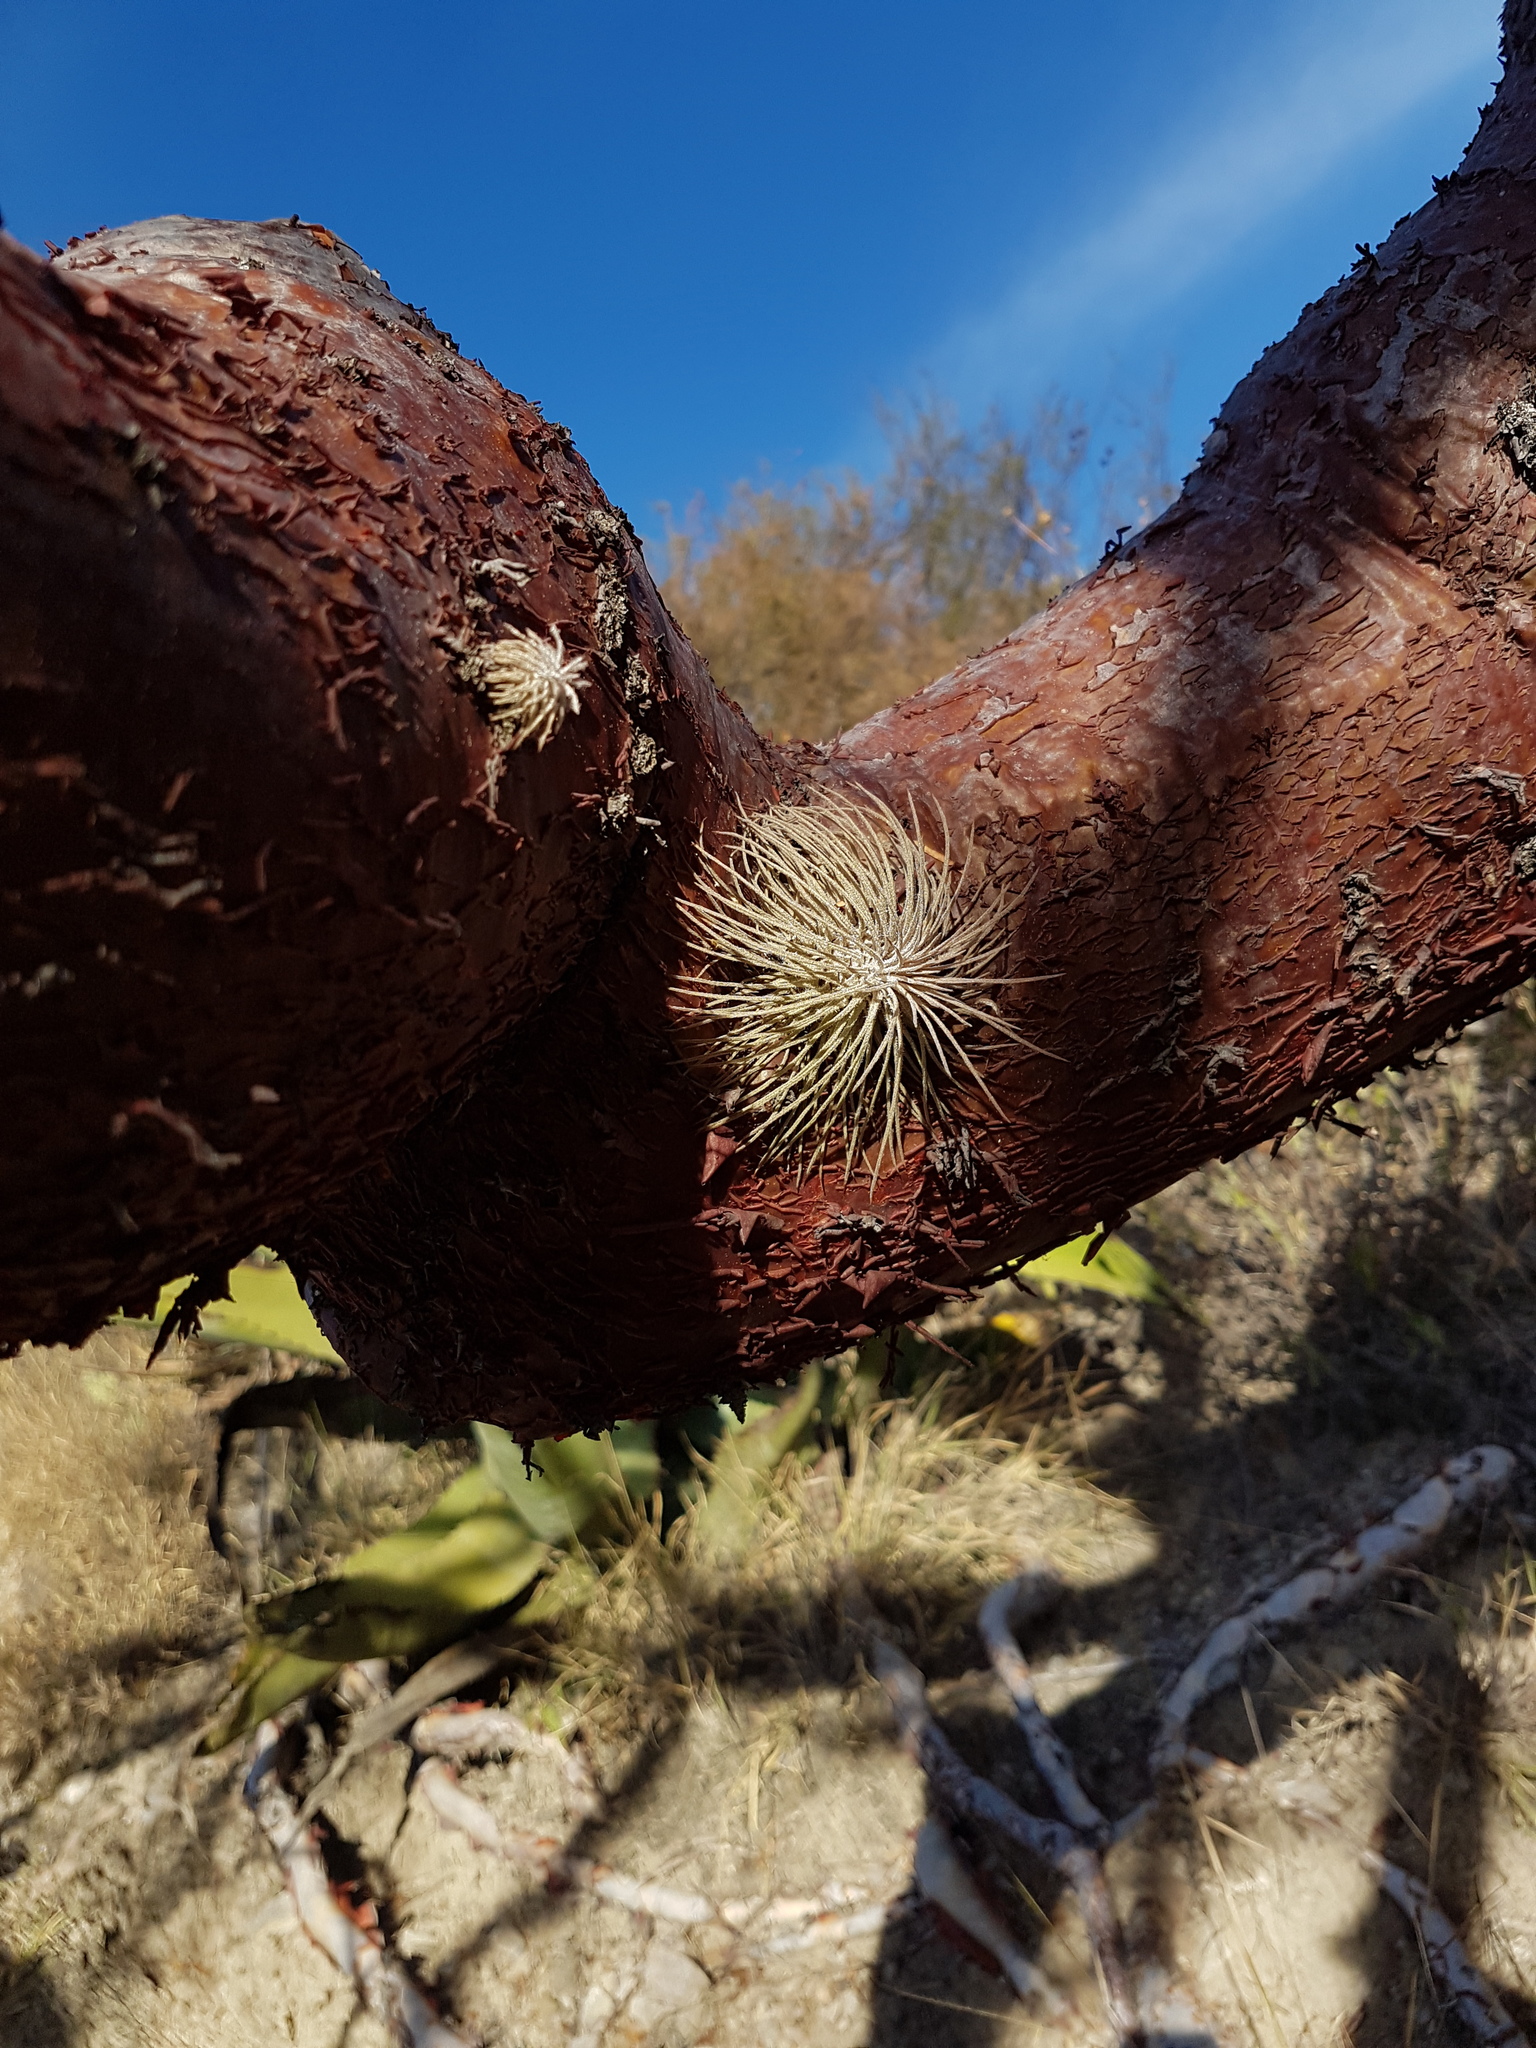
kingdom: Plantae
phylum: Tracheophyta
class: Liliopsida
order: Poales
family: Bromeliaceae
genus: Tillandsia
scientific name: Tillandsia atroviridipetala
